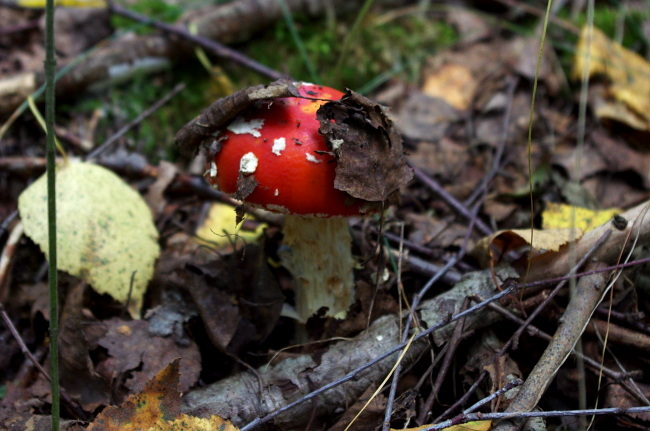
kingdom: Fungi
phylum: Basidiomycota
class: Agaricomycetes
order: Agaricales
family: Amanitaceae
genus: Amanita
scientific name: Amanita muscaria
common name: Fly agaric
